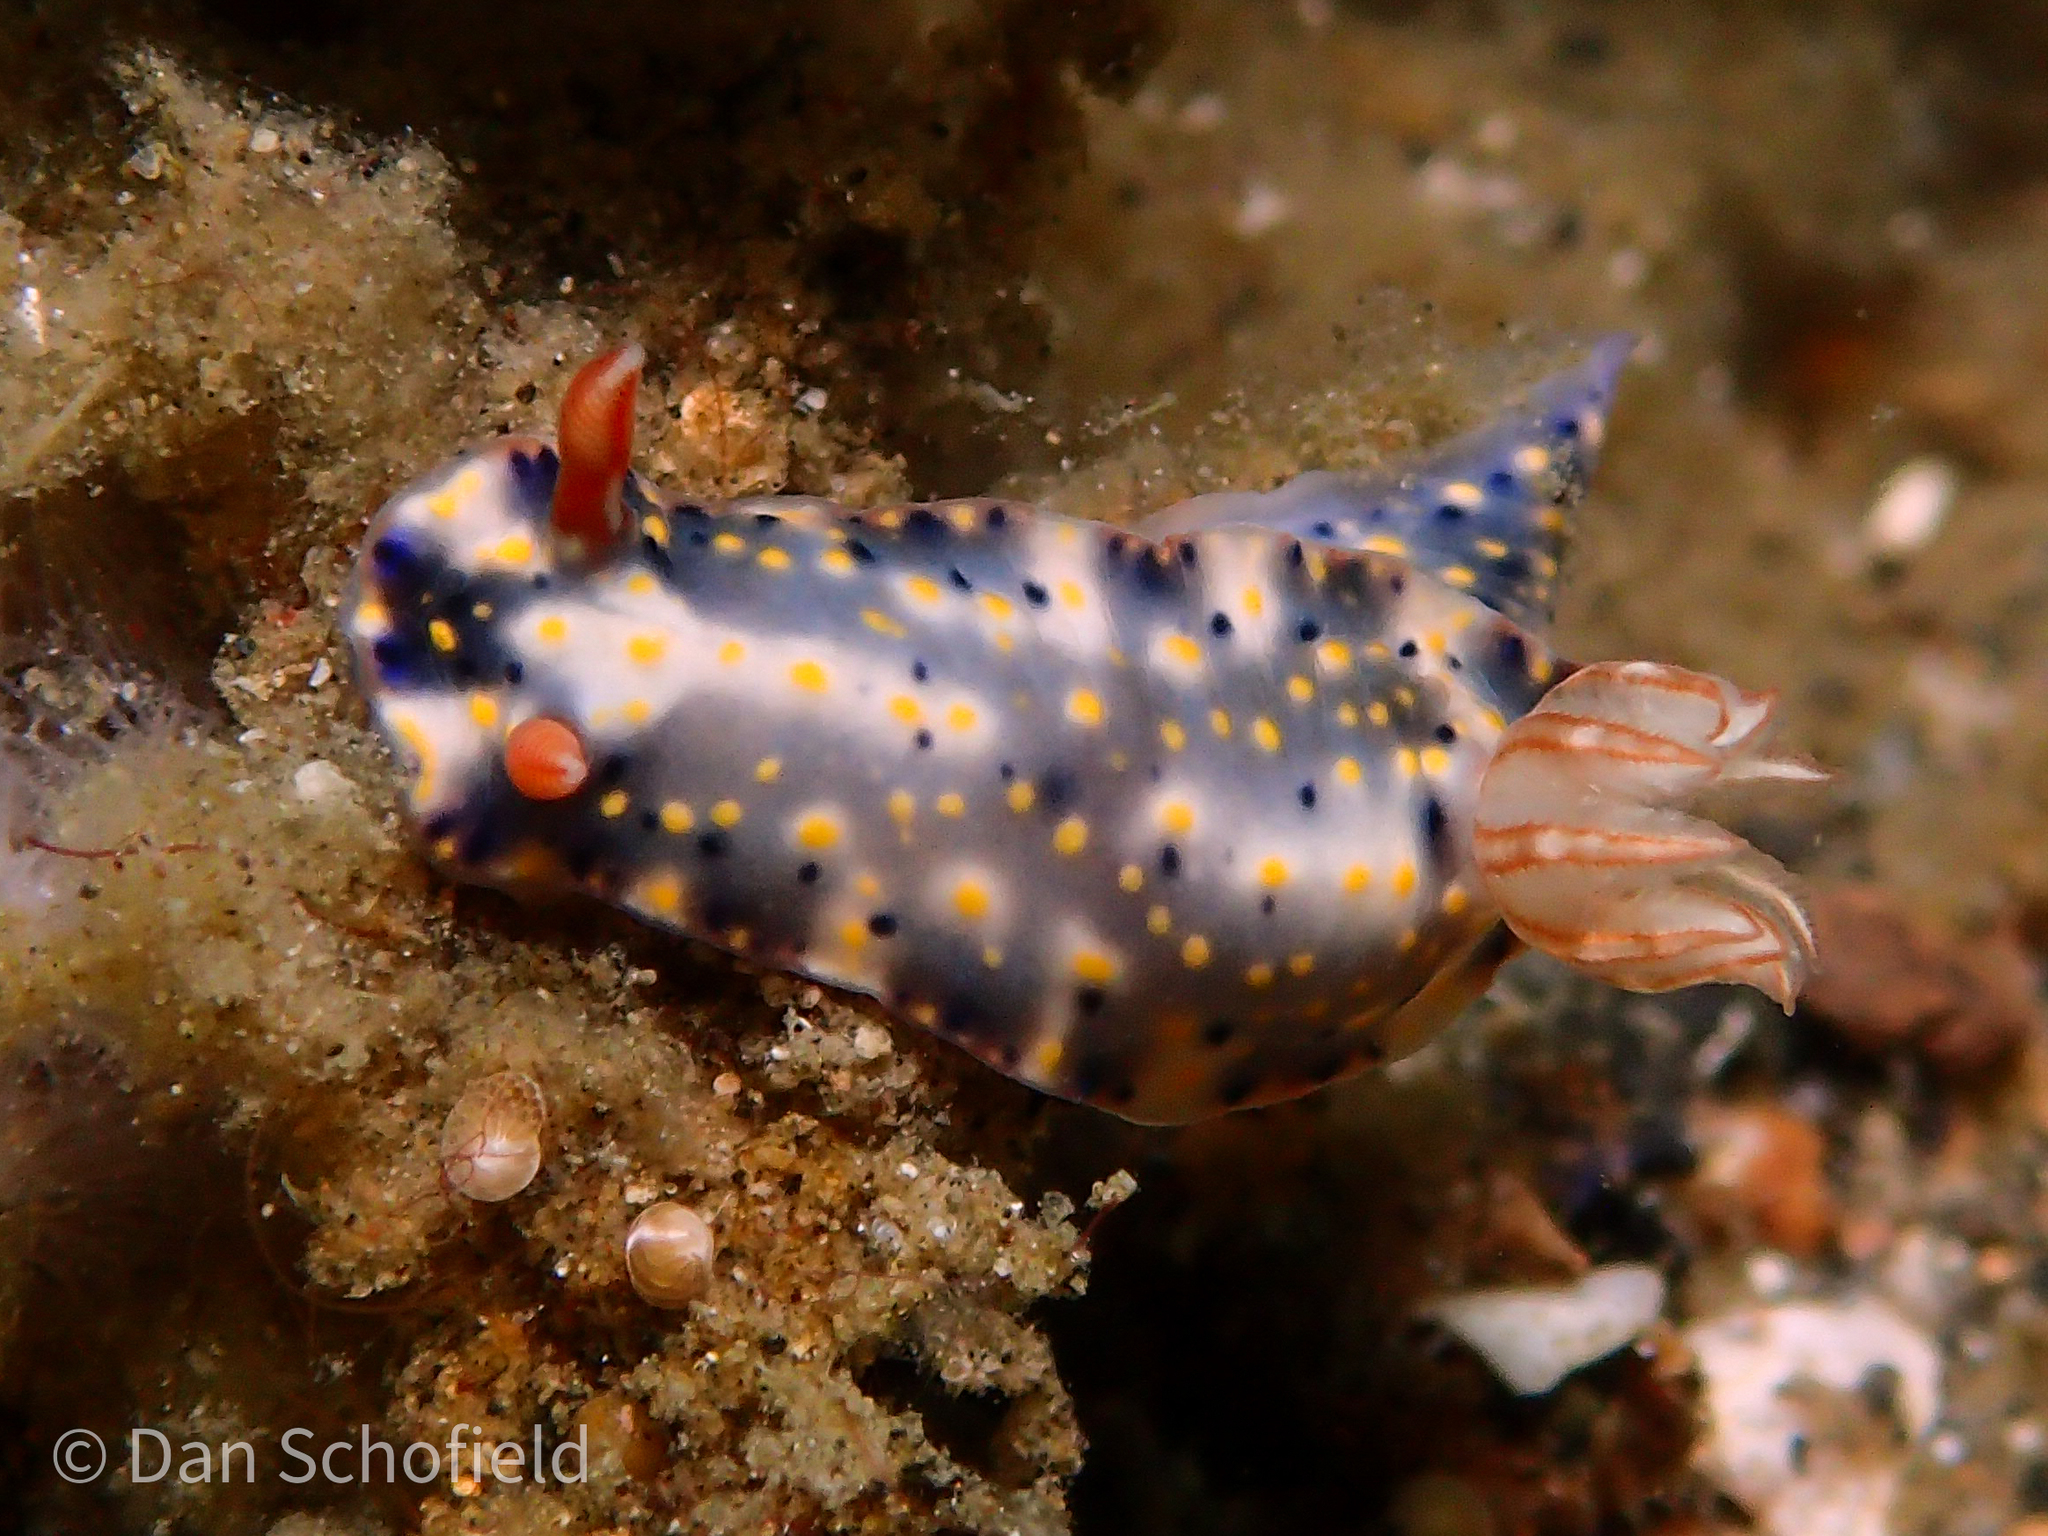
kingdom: Animalia
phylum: Mollusca
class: Gastropoda
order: Nudibranchia
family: Chromodorididae
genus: Hypselodoris
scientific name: Hypselodoris roo
